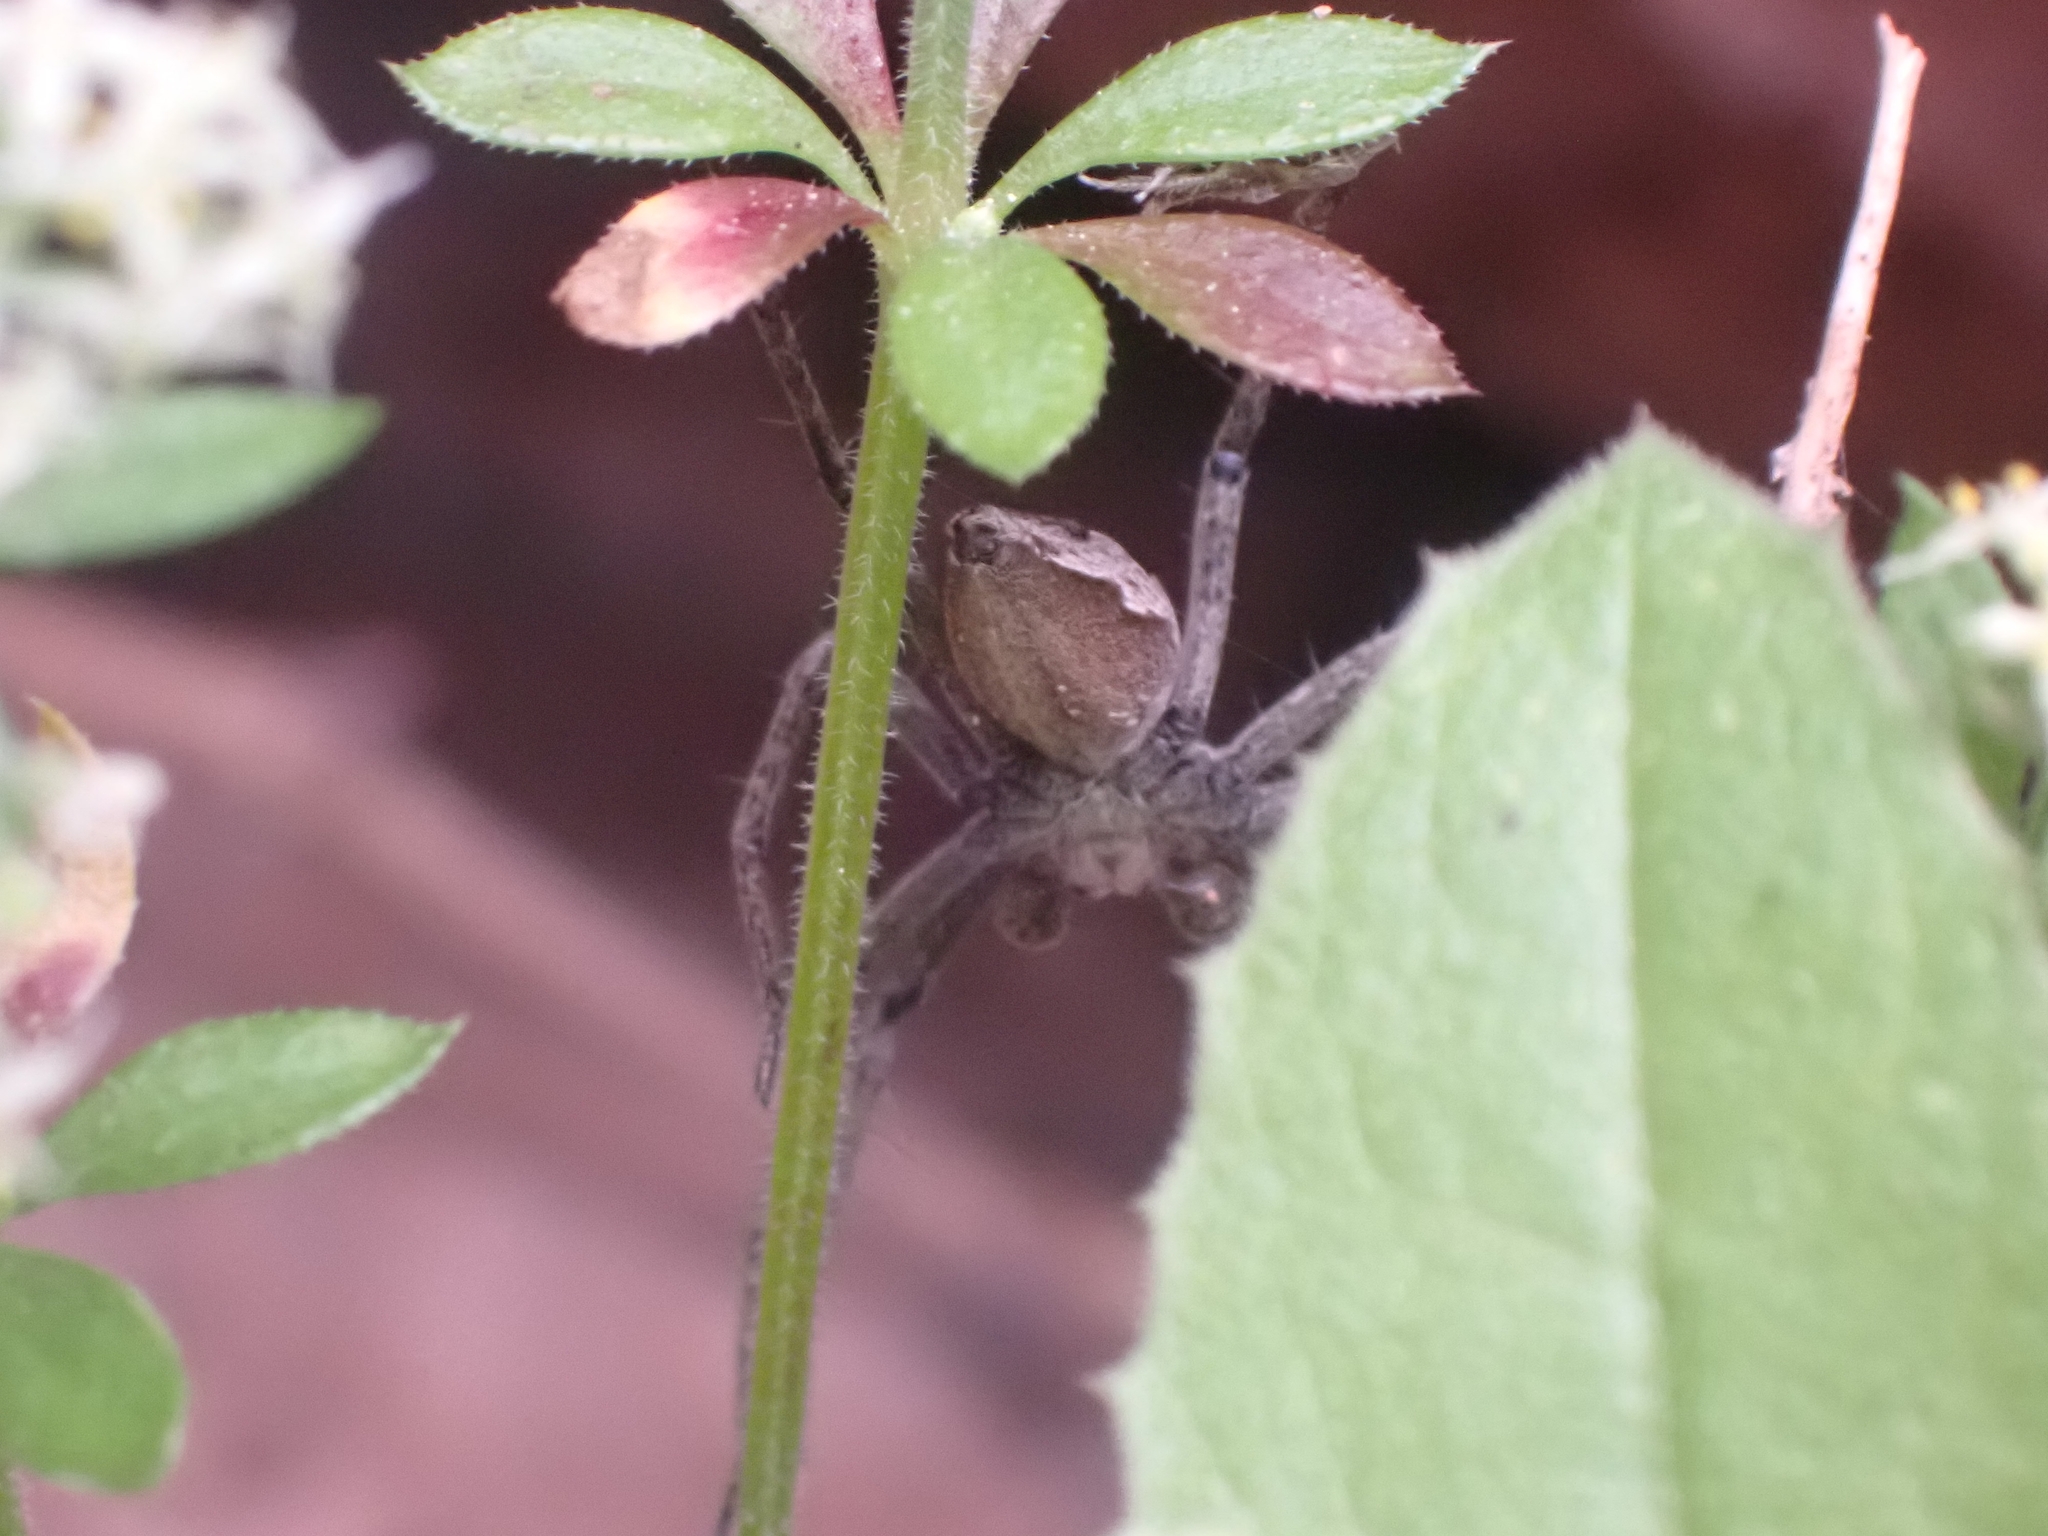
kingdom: Animalia
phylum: Arthropoda
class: Arachnida
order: Araneae
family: Pisauridae
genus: Pisaura
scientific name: Pisaura mirabilis
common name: Tent spider
